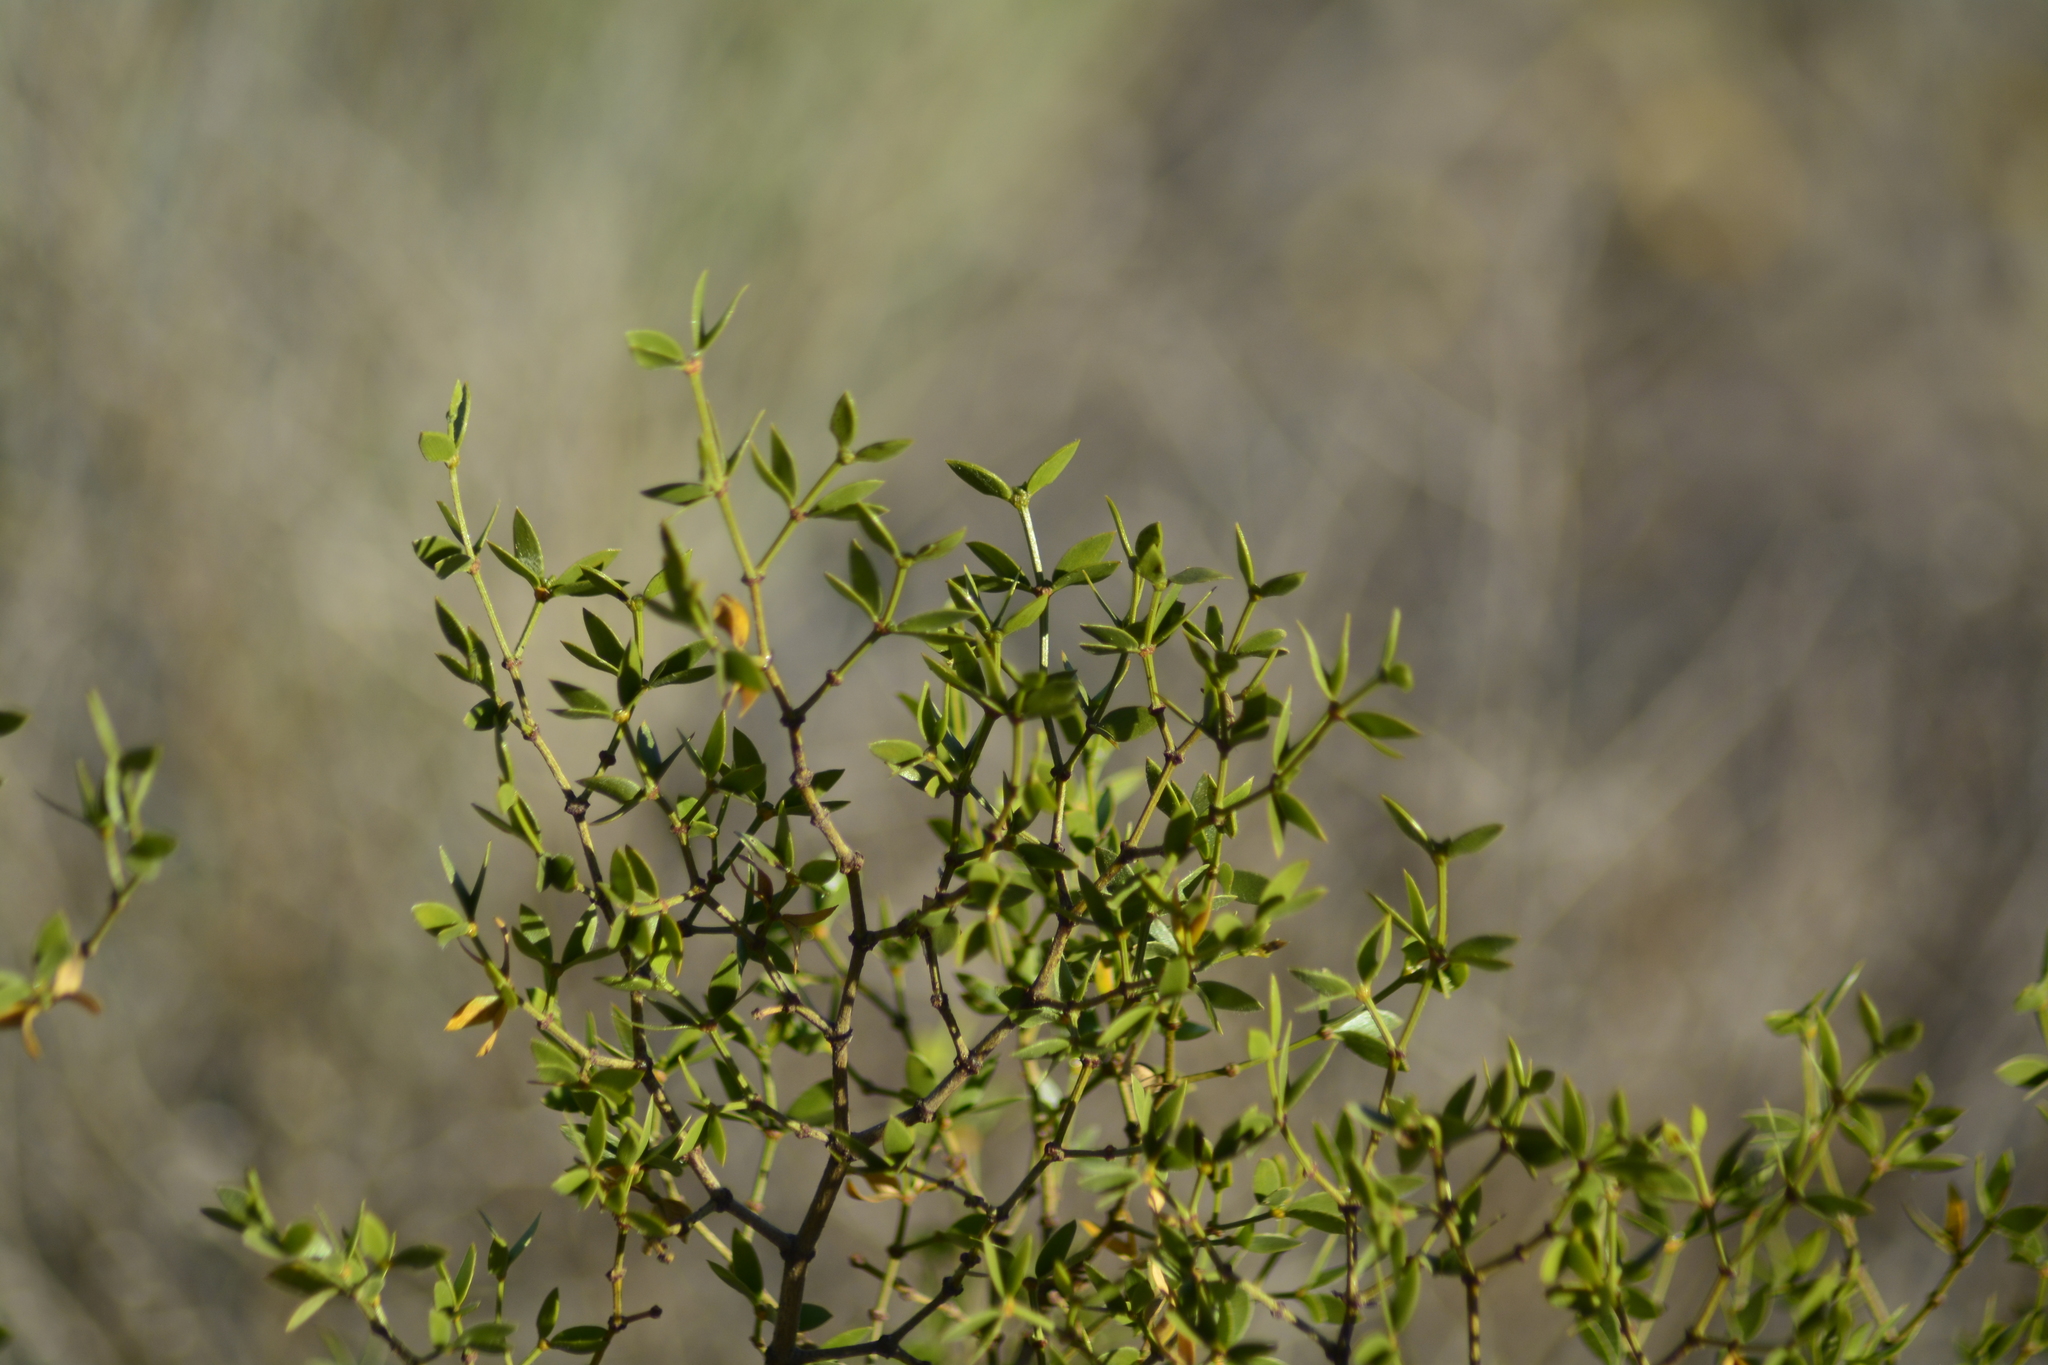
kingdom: Plantae
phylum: Tracheophyta
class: Magnoliopsida
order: Zygophyllales
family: Zygophyllaceae
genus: Larrea
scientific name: Larrea divaricata
